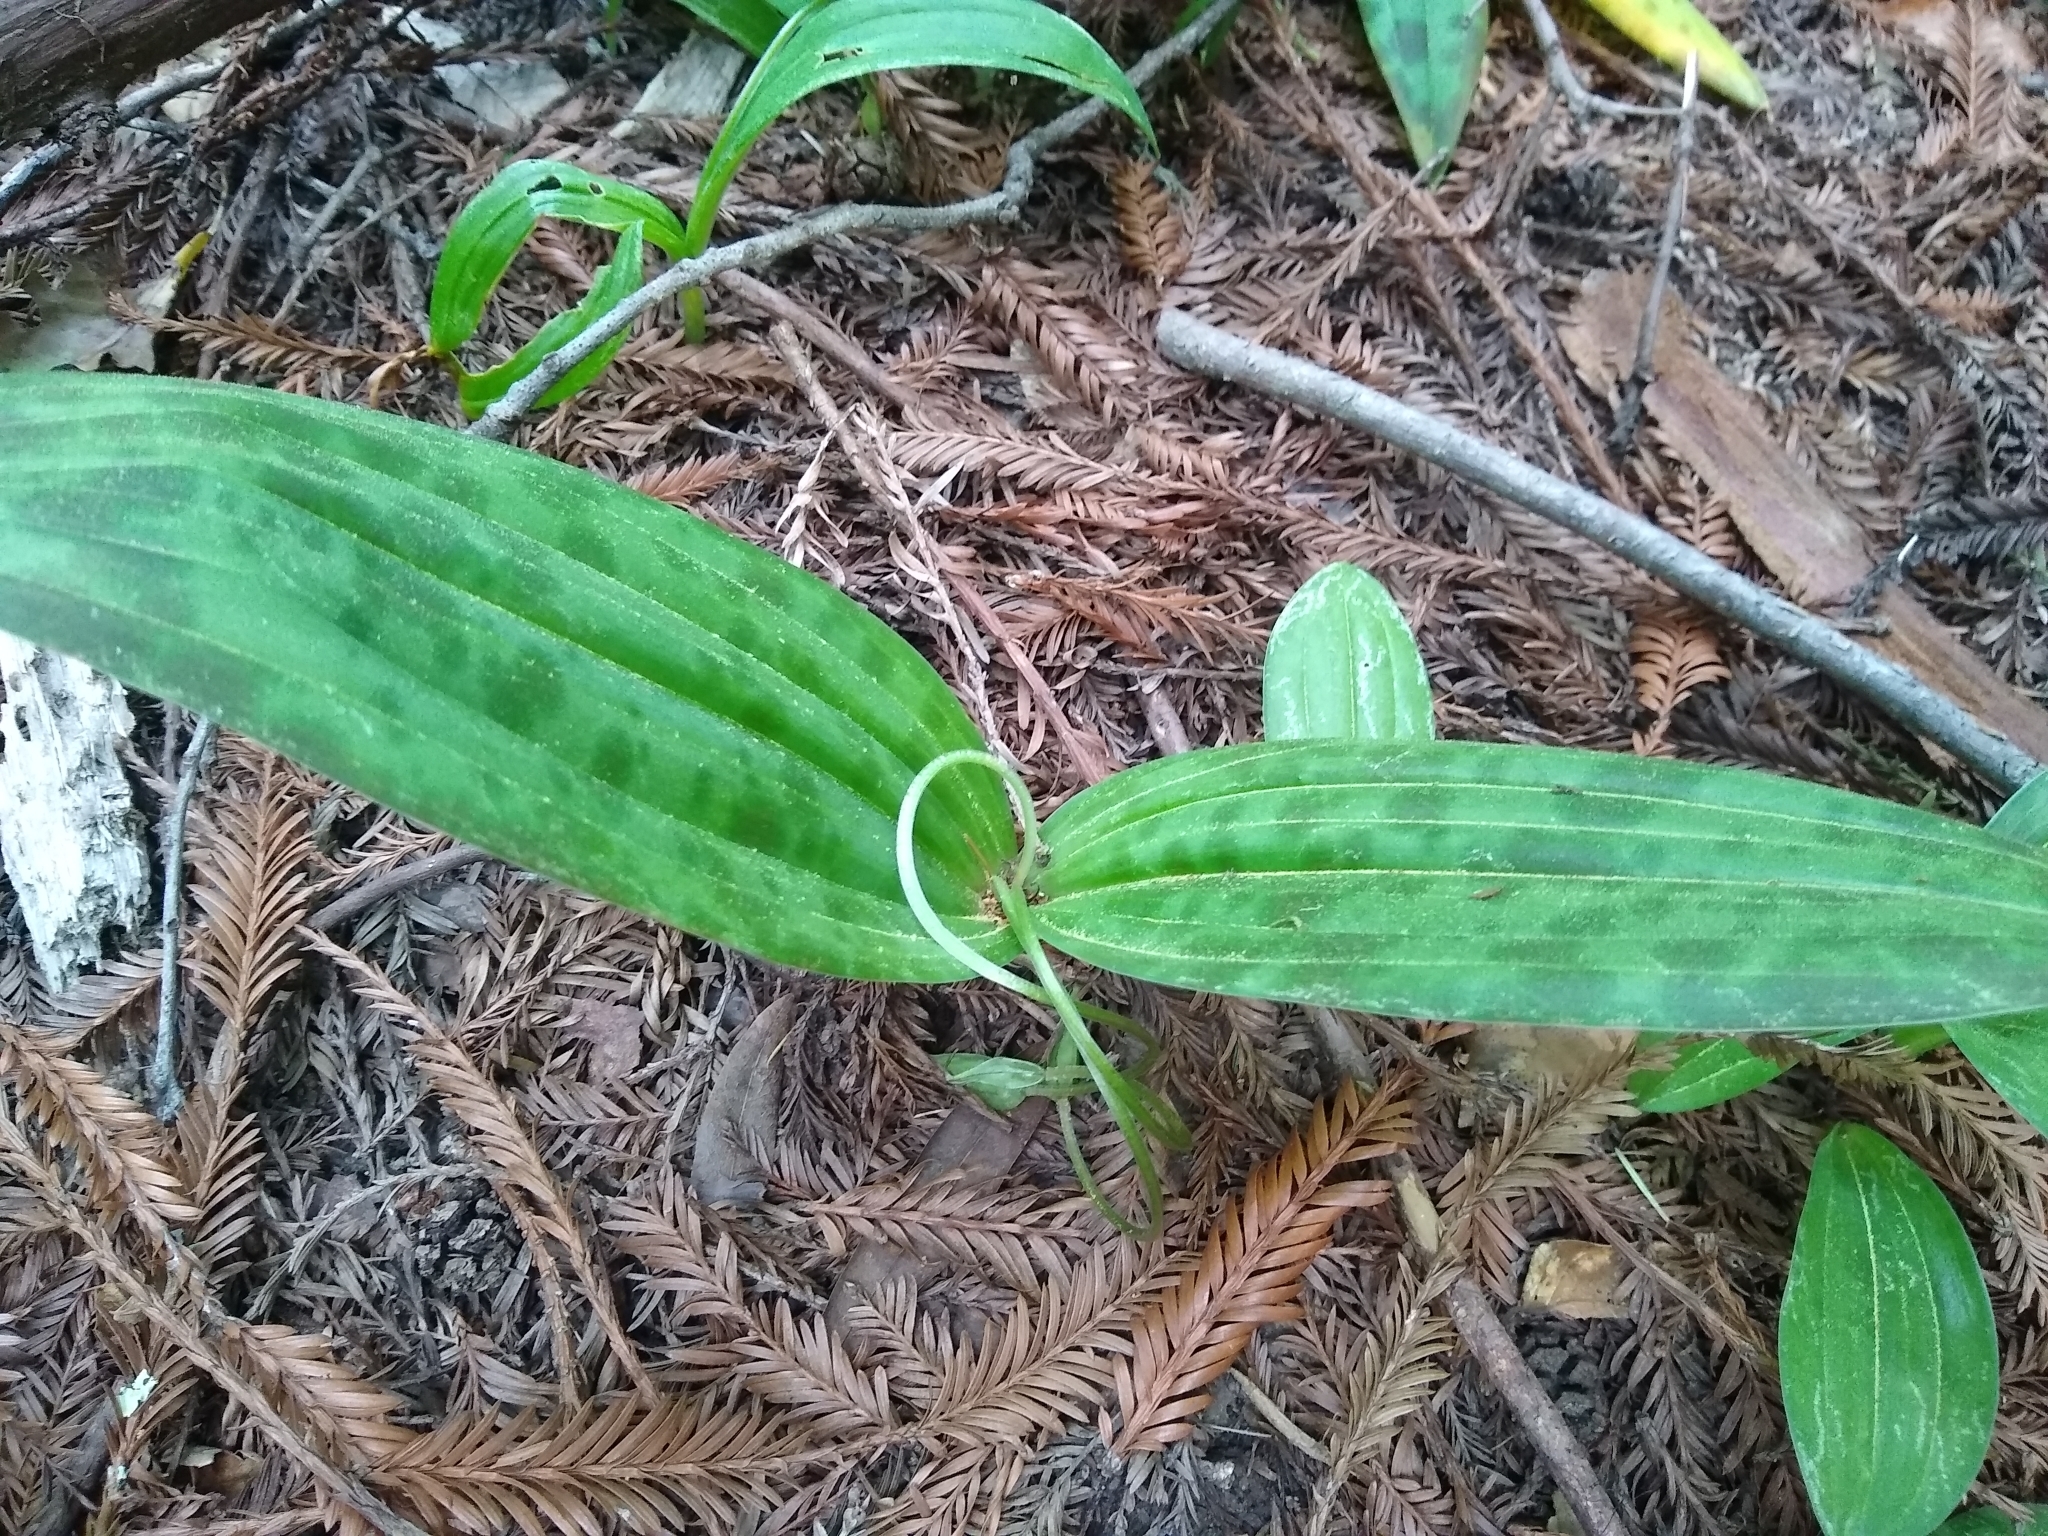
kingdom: Plantae
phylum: Tracheophyta
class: Liliopsida
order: Liliales
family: Liliaceae
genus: Scoliopus
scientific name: Scoliopus bigelovii
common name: Foetid adder's-tongue
